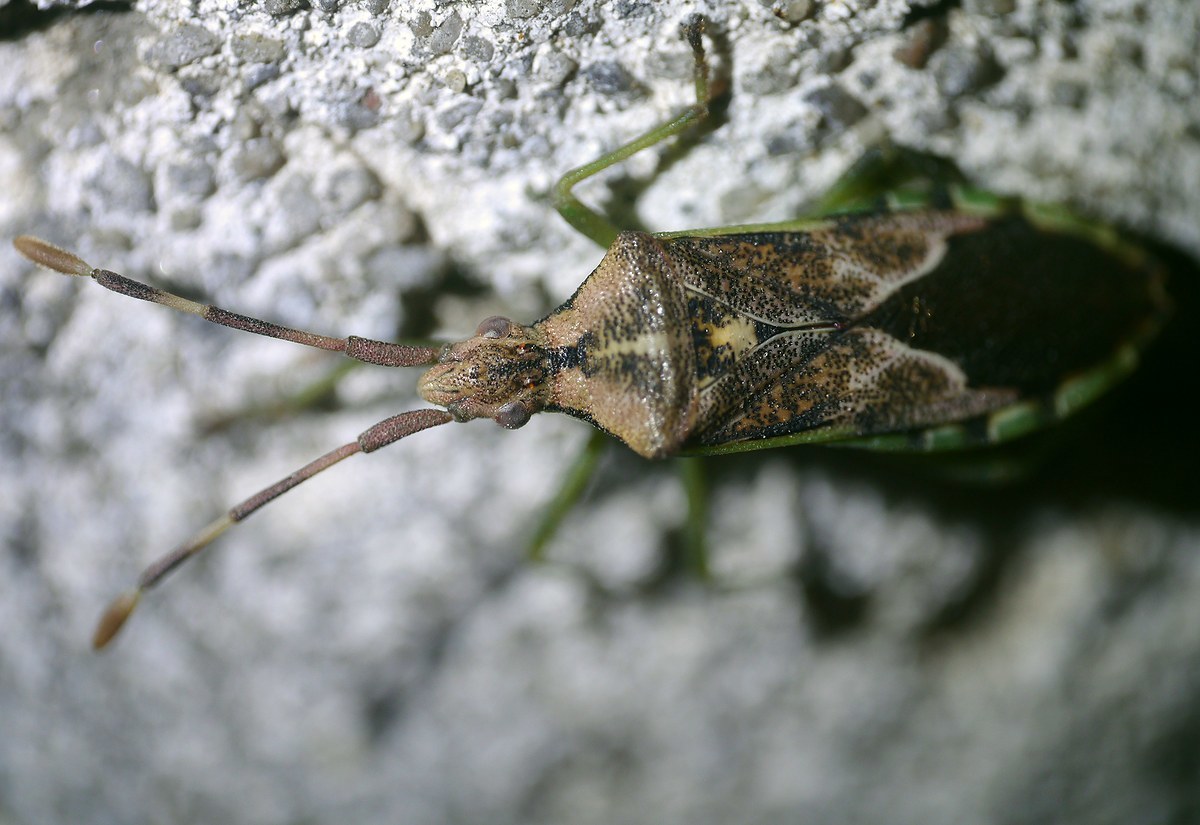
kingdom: Animalia
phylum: Arthropoda
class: Insecta
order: Hemiptera
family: Coreidae
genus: Gonocerus
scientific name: Gonocerus juniperi
